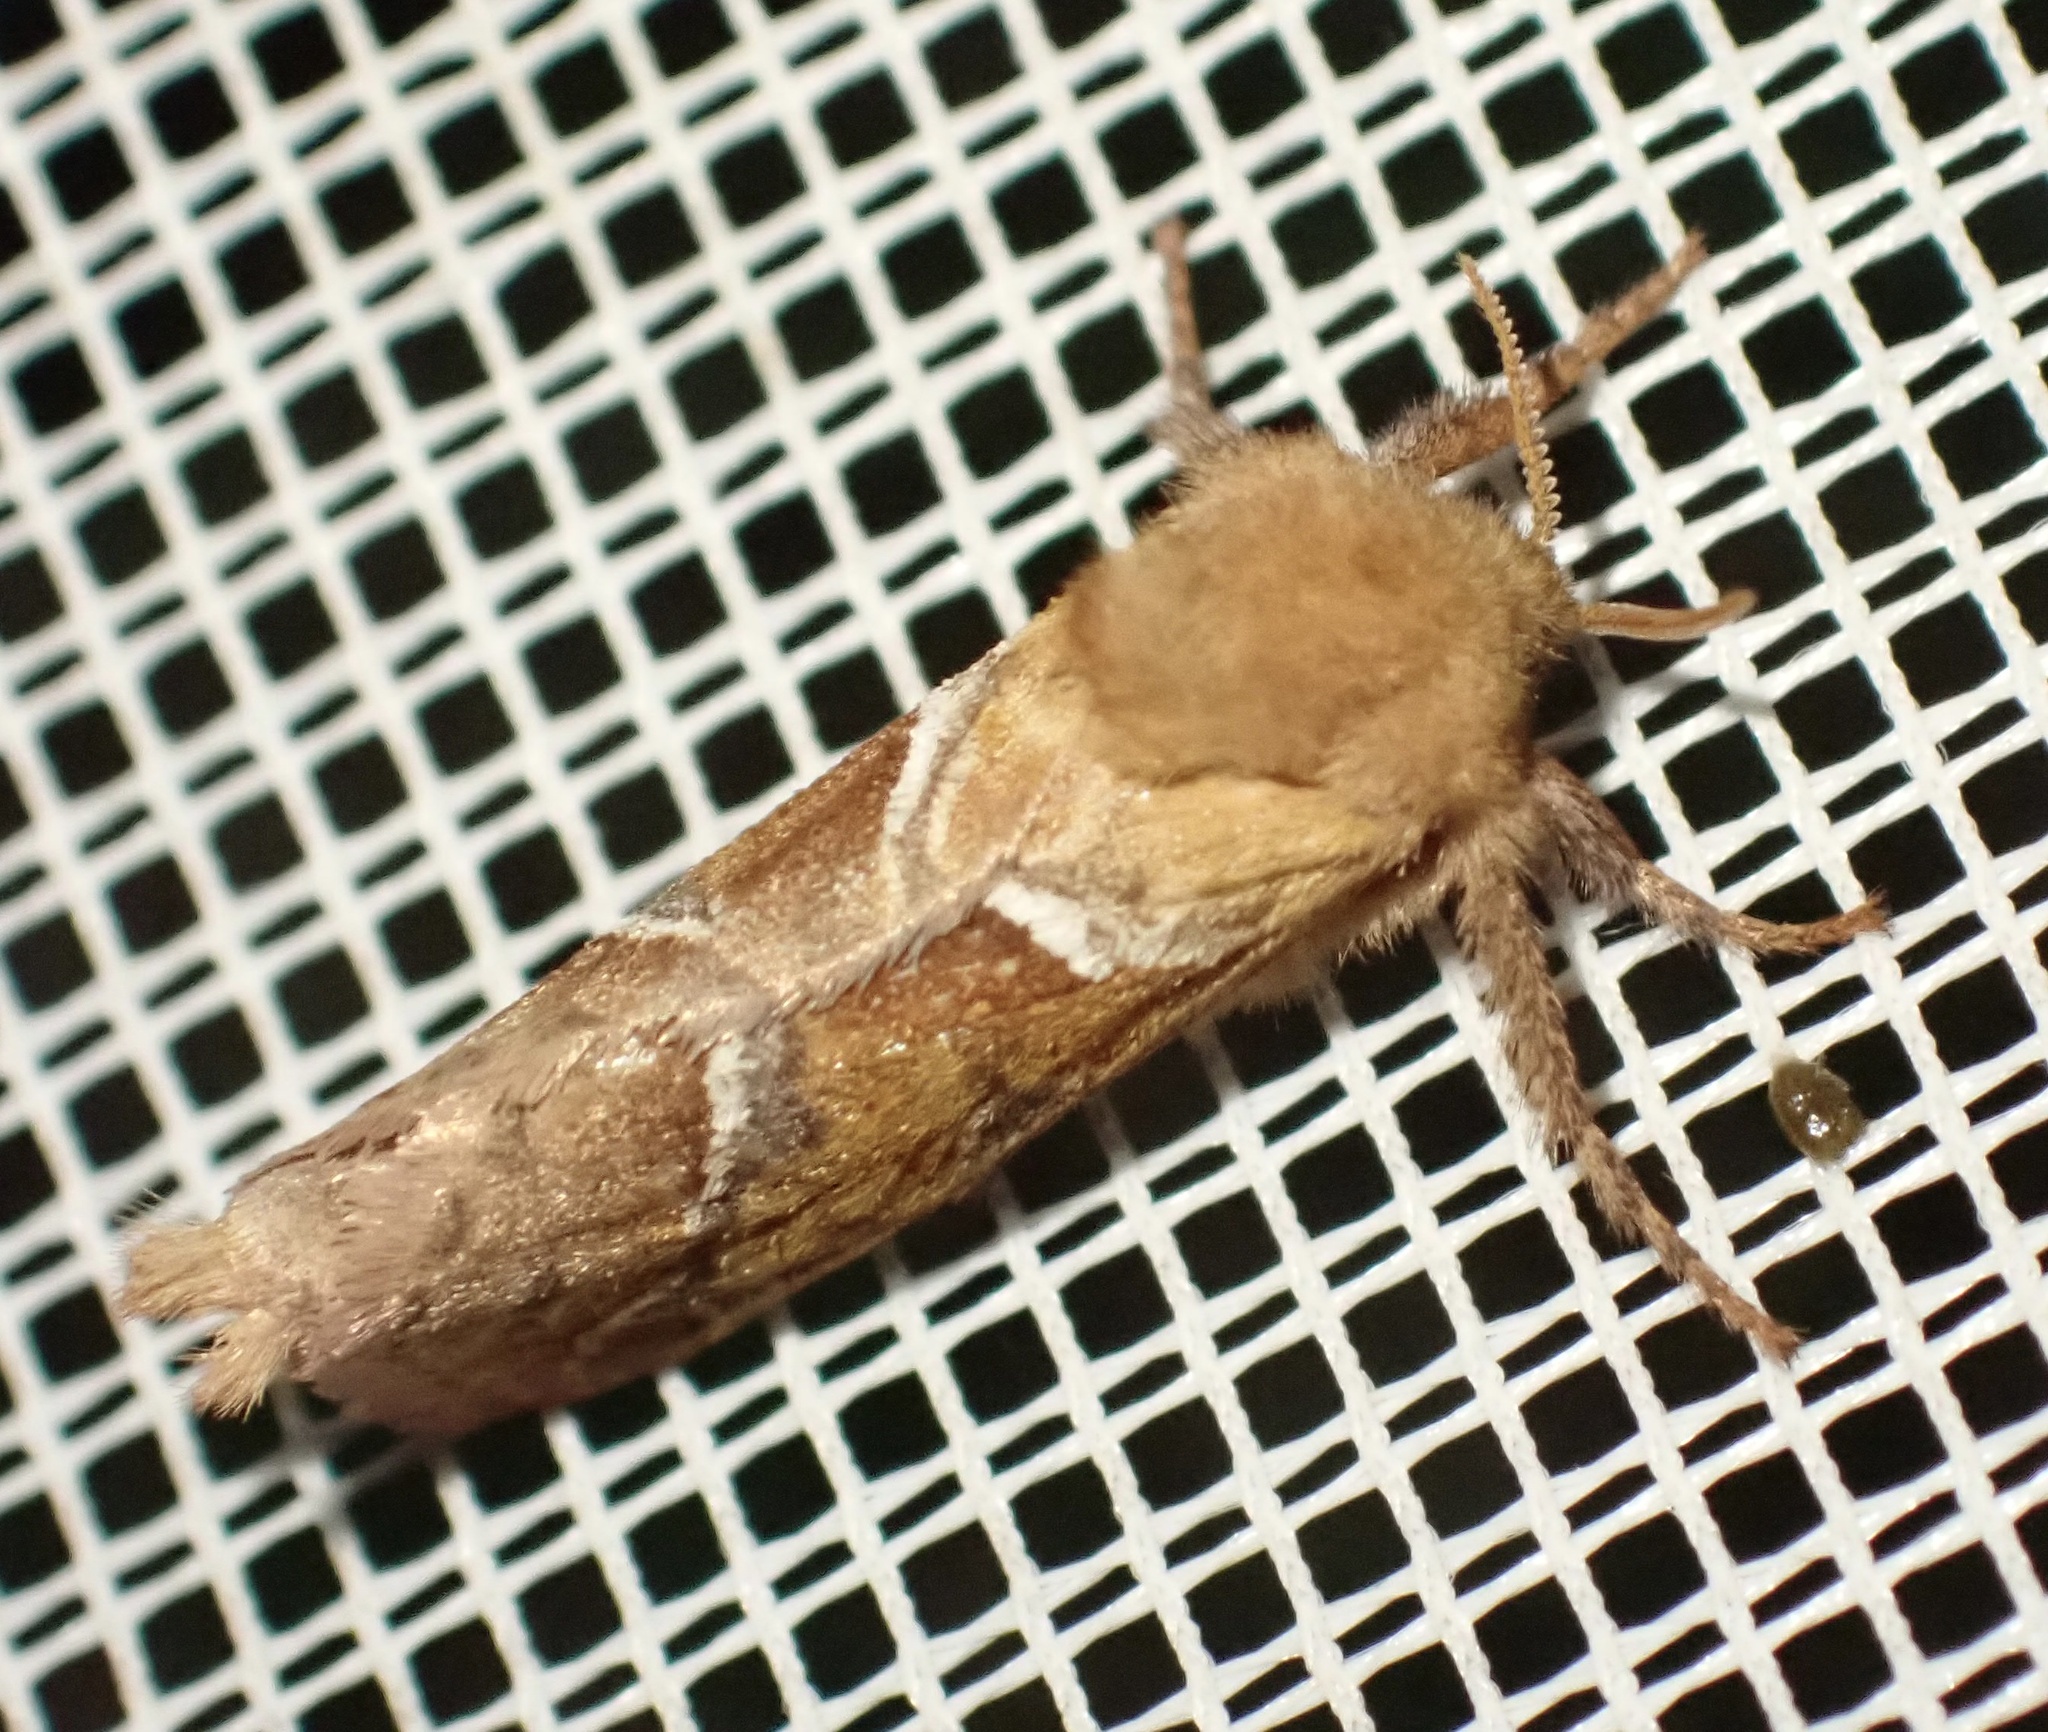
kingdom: Animalia
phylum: Arthropoda
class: Insecta
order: Lepidoptera
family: Hepialidae
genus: Triodia
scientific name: Triodia sylvina
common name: Orange swift
